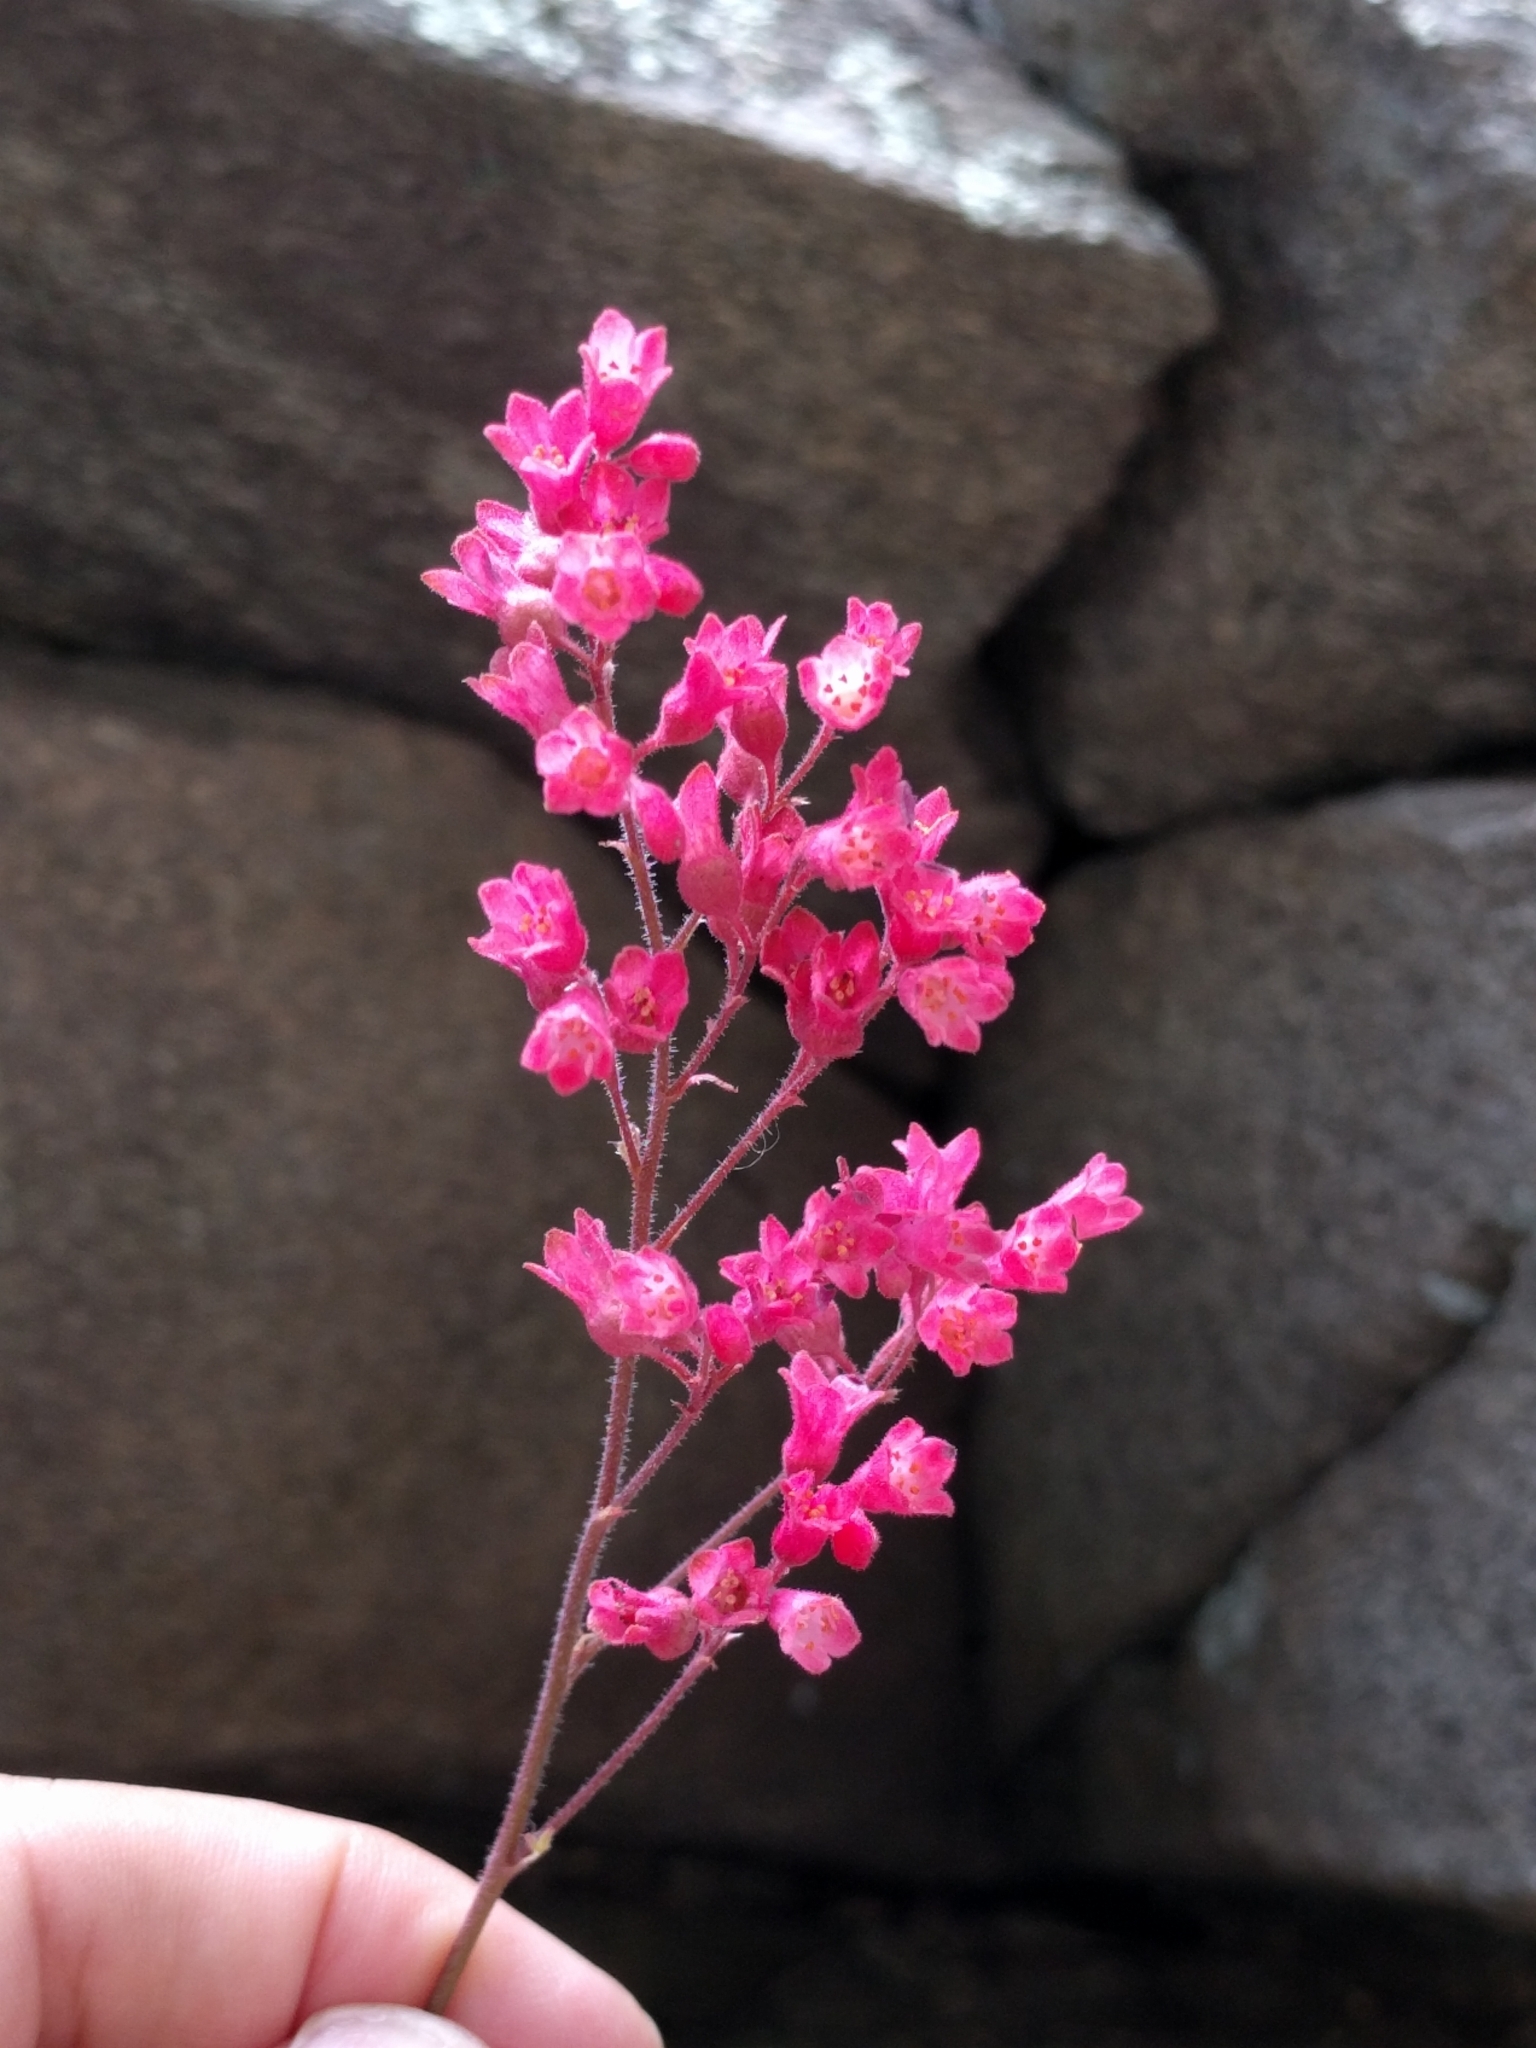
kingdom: Plantae
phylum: Tracheophyta
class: Magnoliopsida
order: Saxifragales
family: Saxifragaceae
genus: Heuchera
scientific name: Heuchera sanguinea
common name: Coralbells
